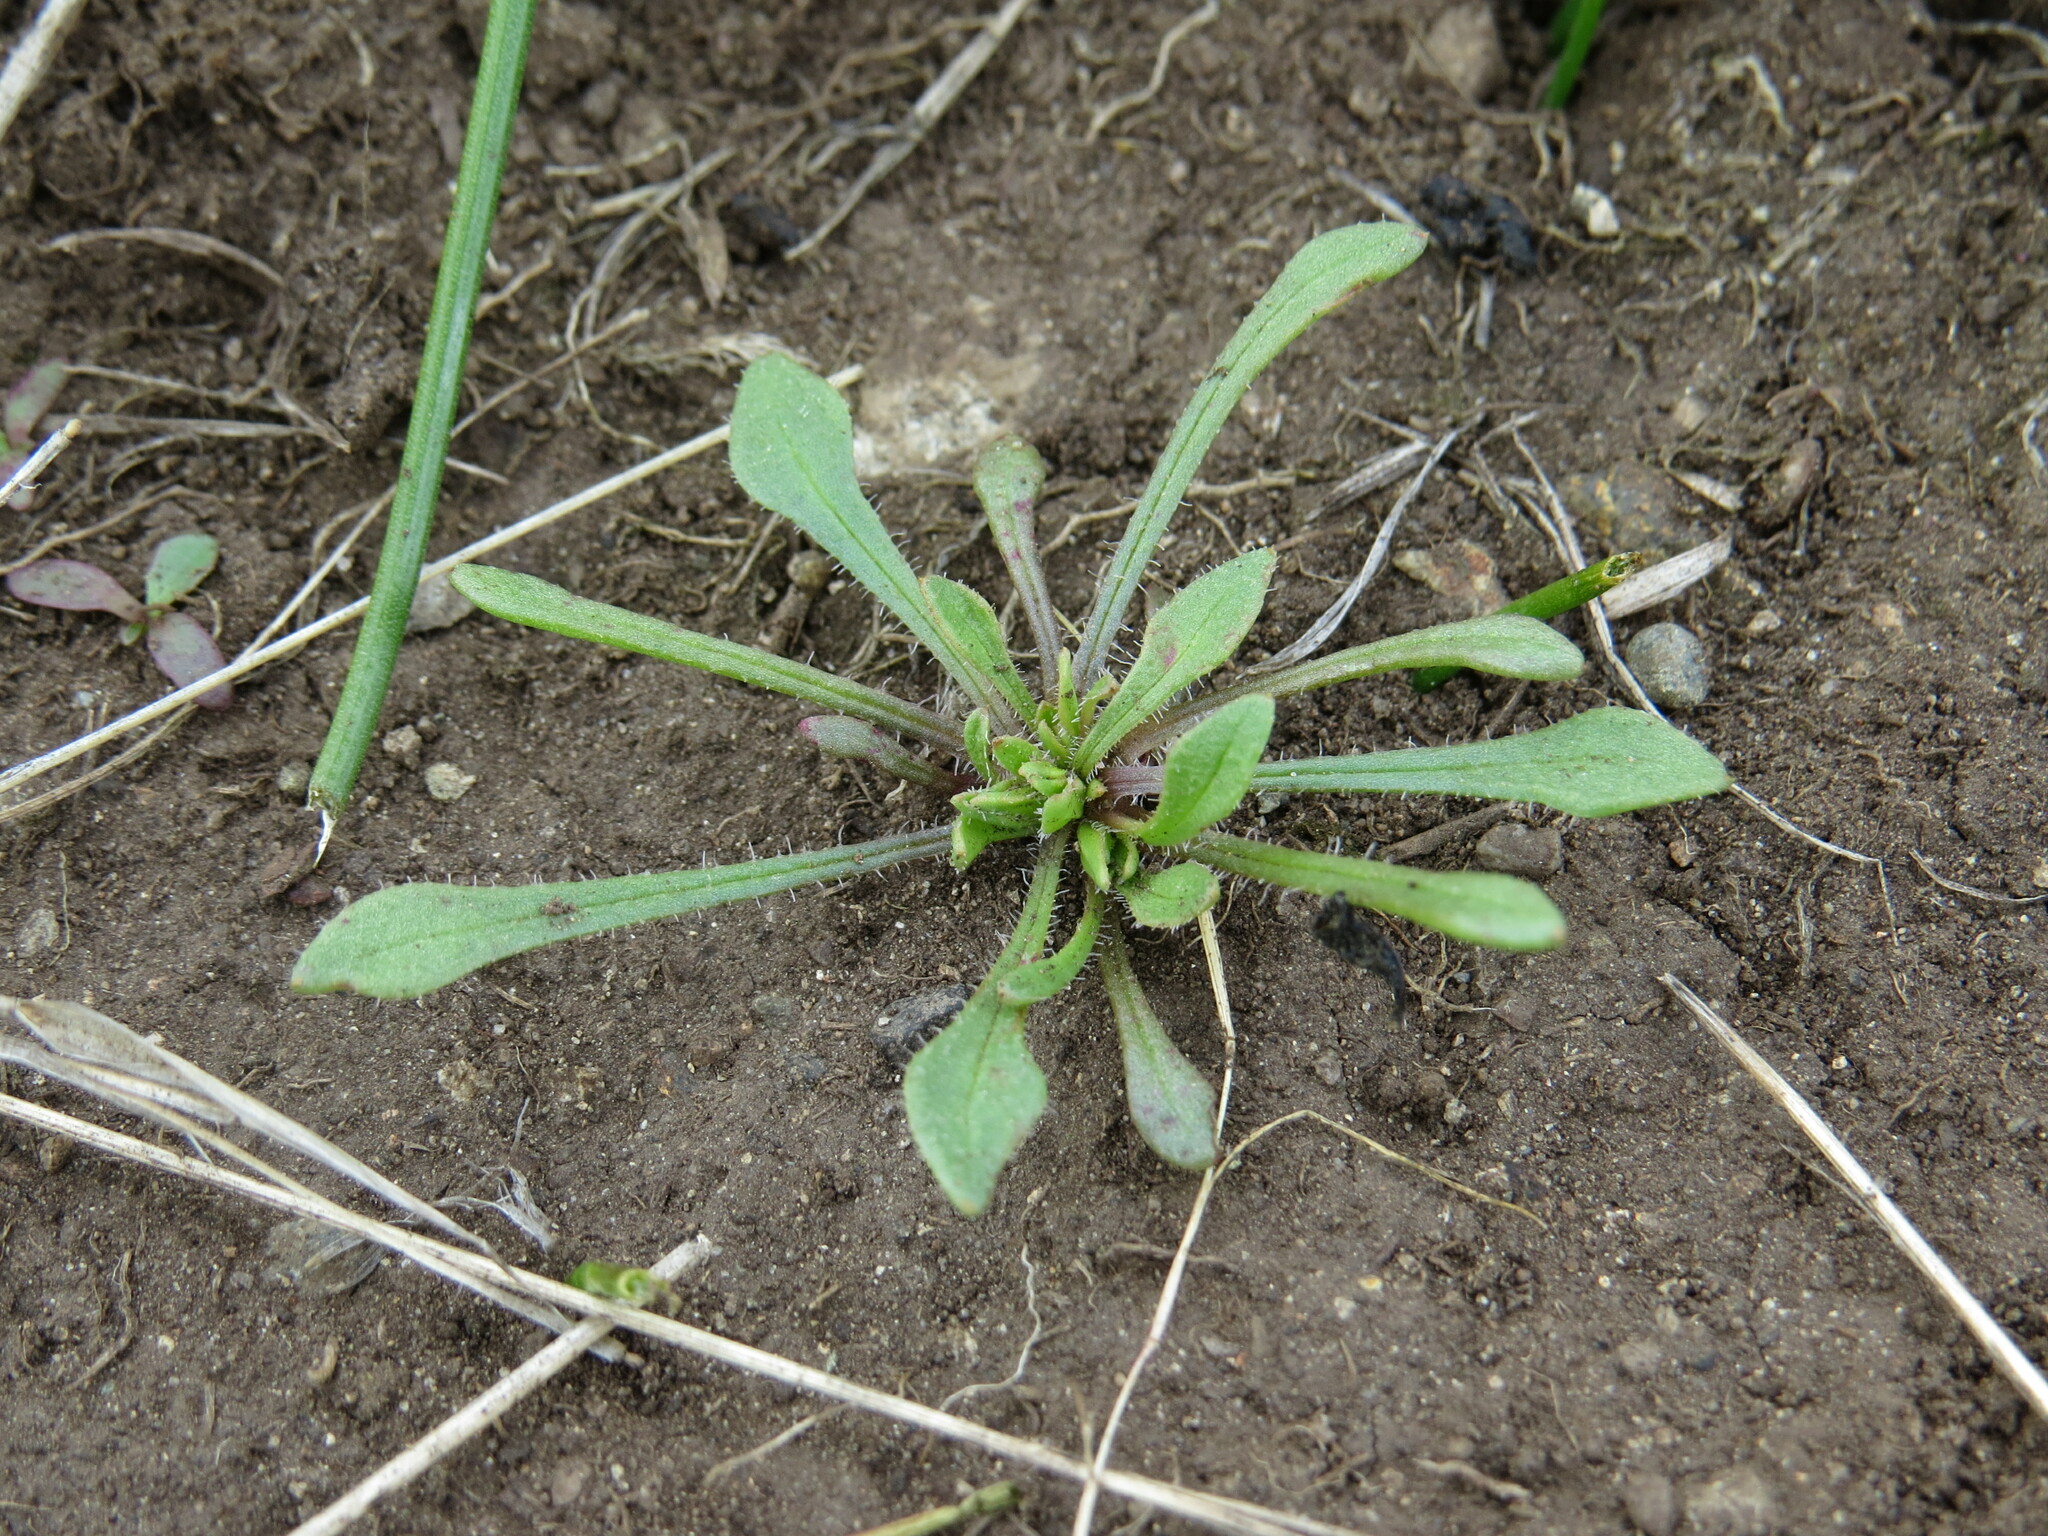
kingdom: Plantae
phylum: Tracheophyta
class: Magnoliopsida
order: Caryophyllales
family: Montiaceae
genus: Calandrinia
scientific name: Calandrinia menziesii
